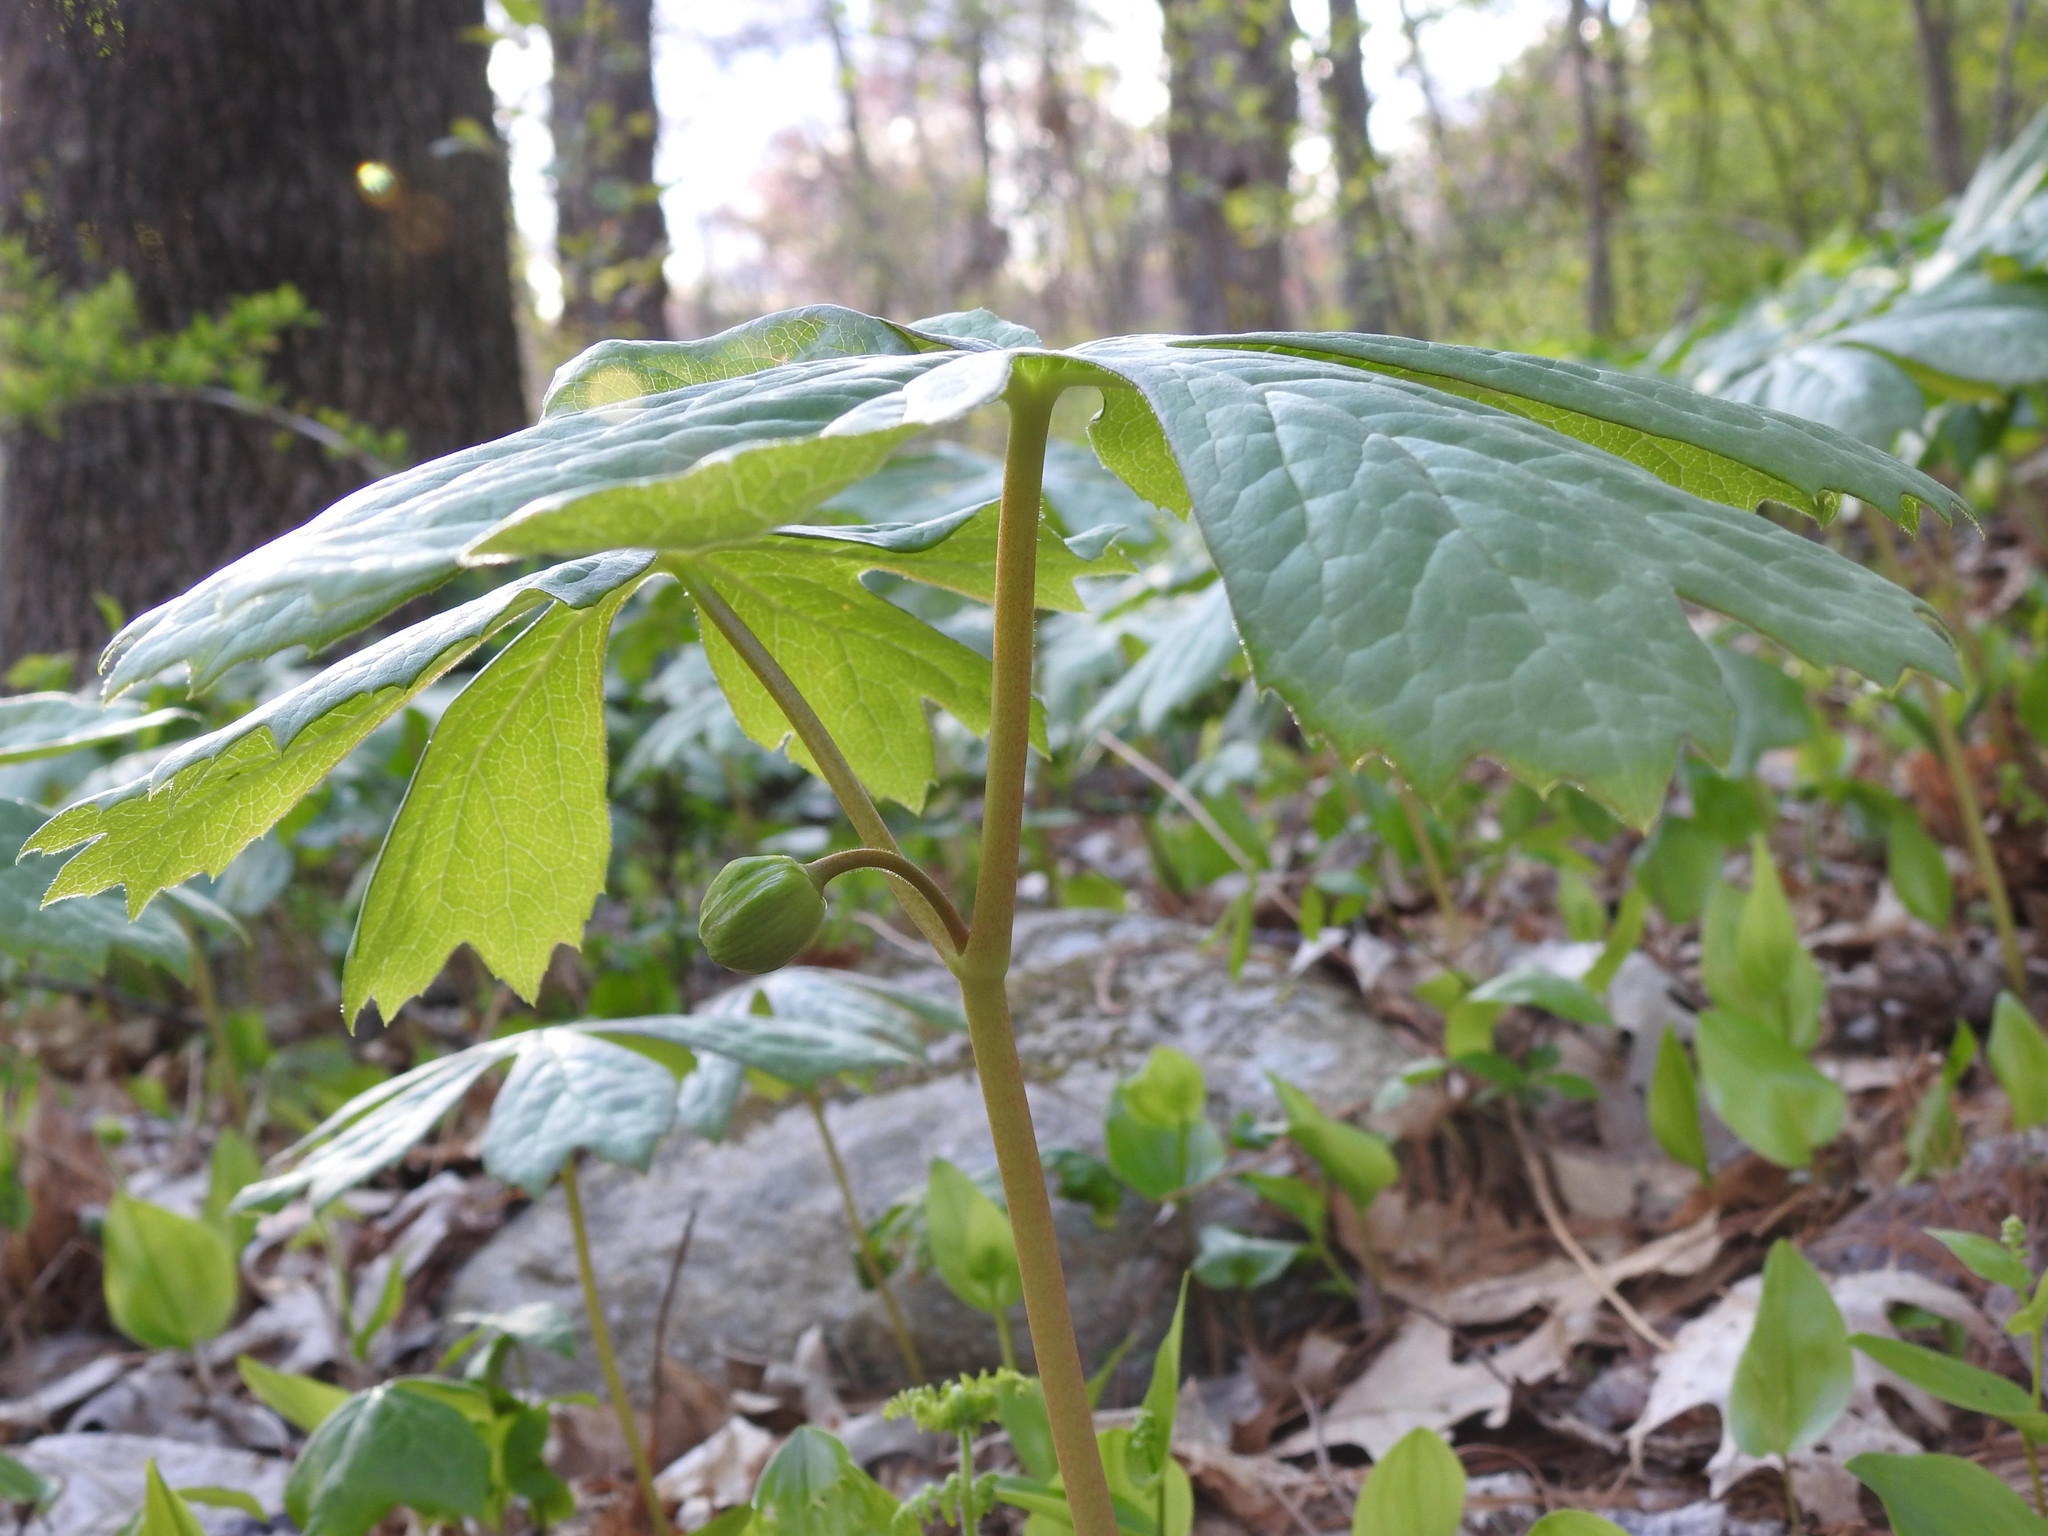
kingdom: Plantae
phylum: Tracheophyta
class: Magnoliopsida
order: Ranunculales
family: Berberidaceae
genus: Podophyllum
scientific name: Podophyllum peltatum
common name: Wild mandrake
